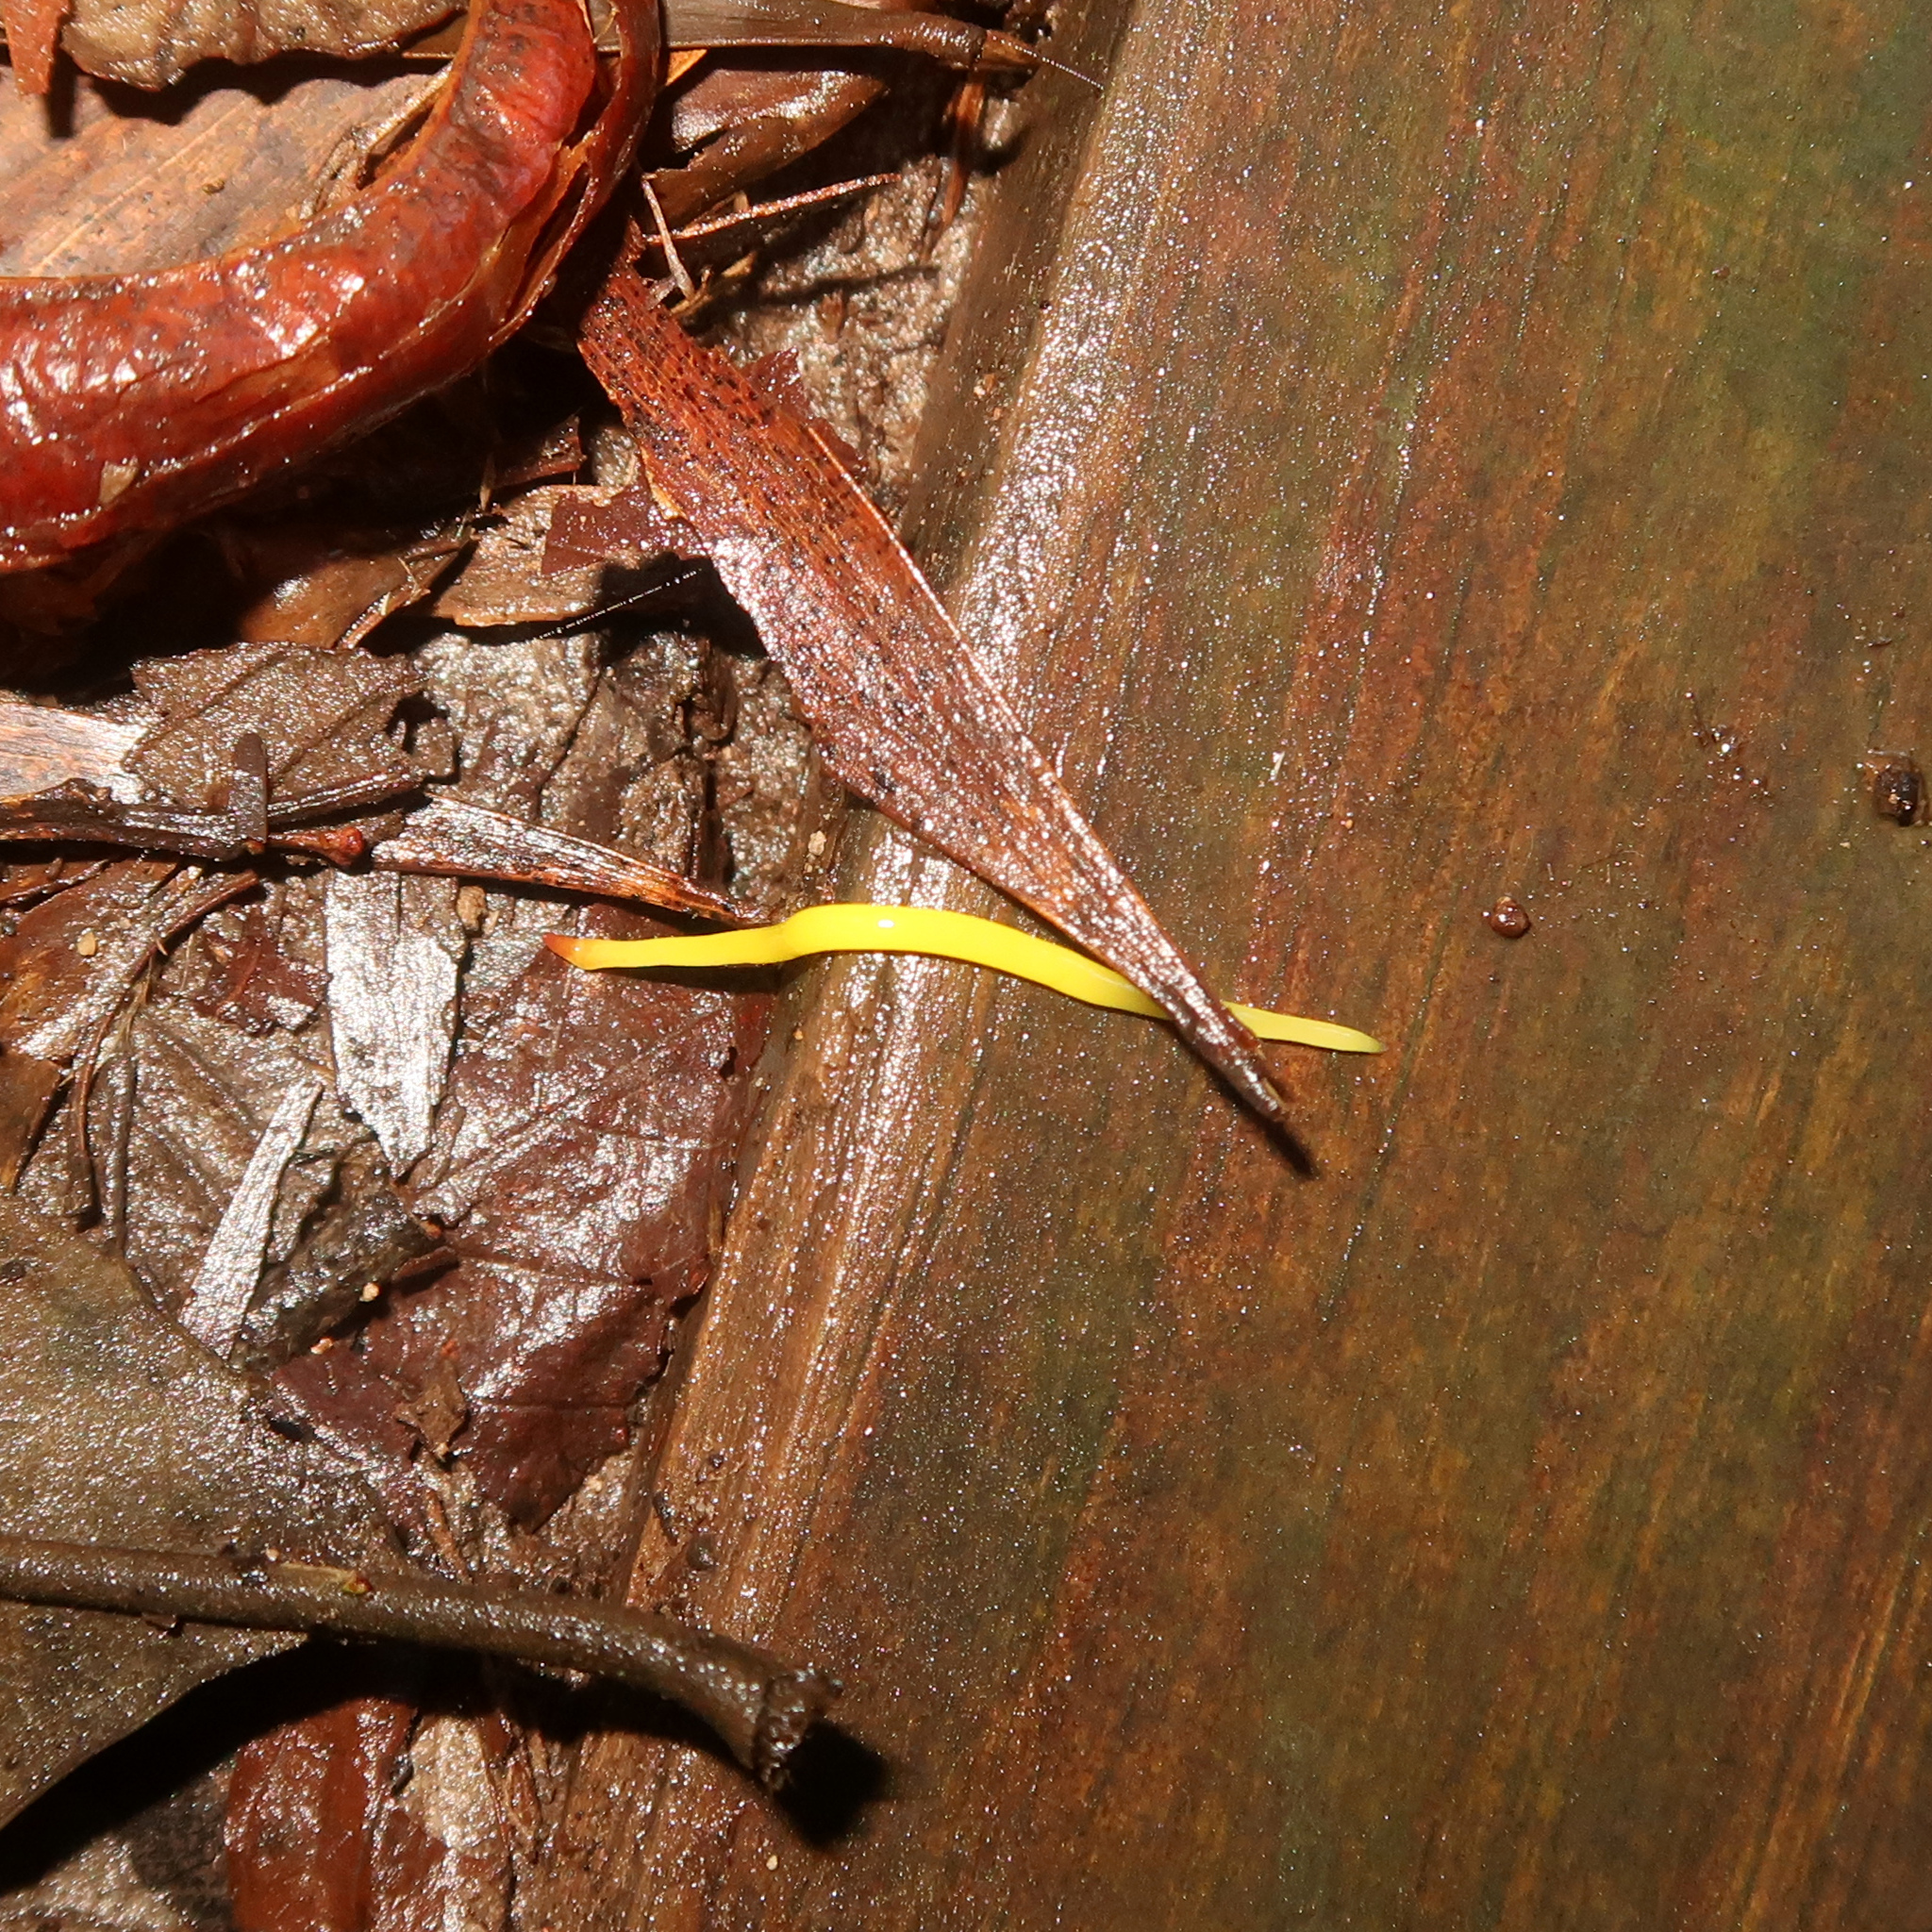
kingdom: Animalia
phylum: Platyhelminthes
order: Tricladida
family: Geoplanidae
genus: Fletchamia
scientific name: Fletchamia sugdeni
